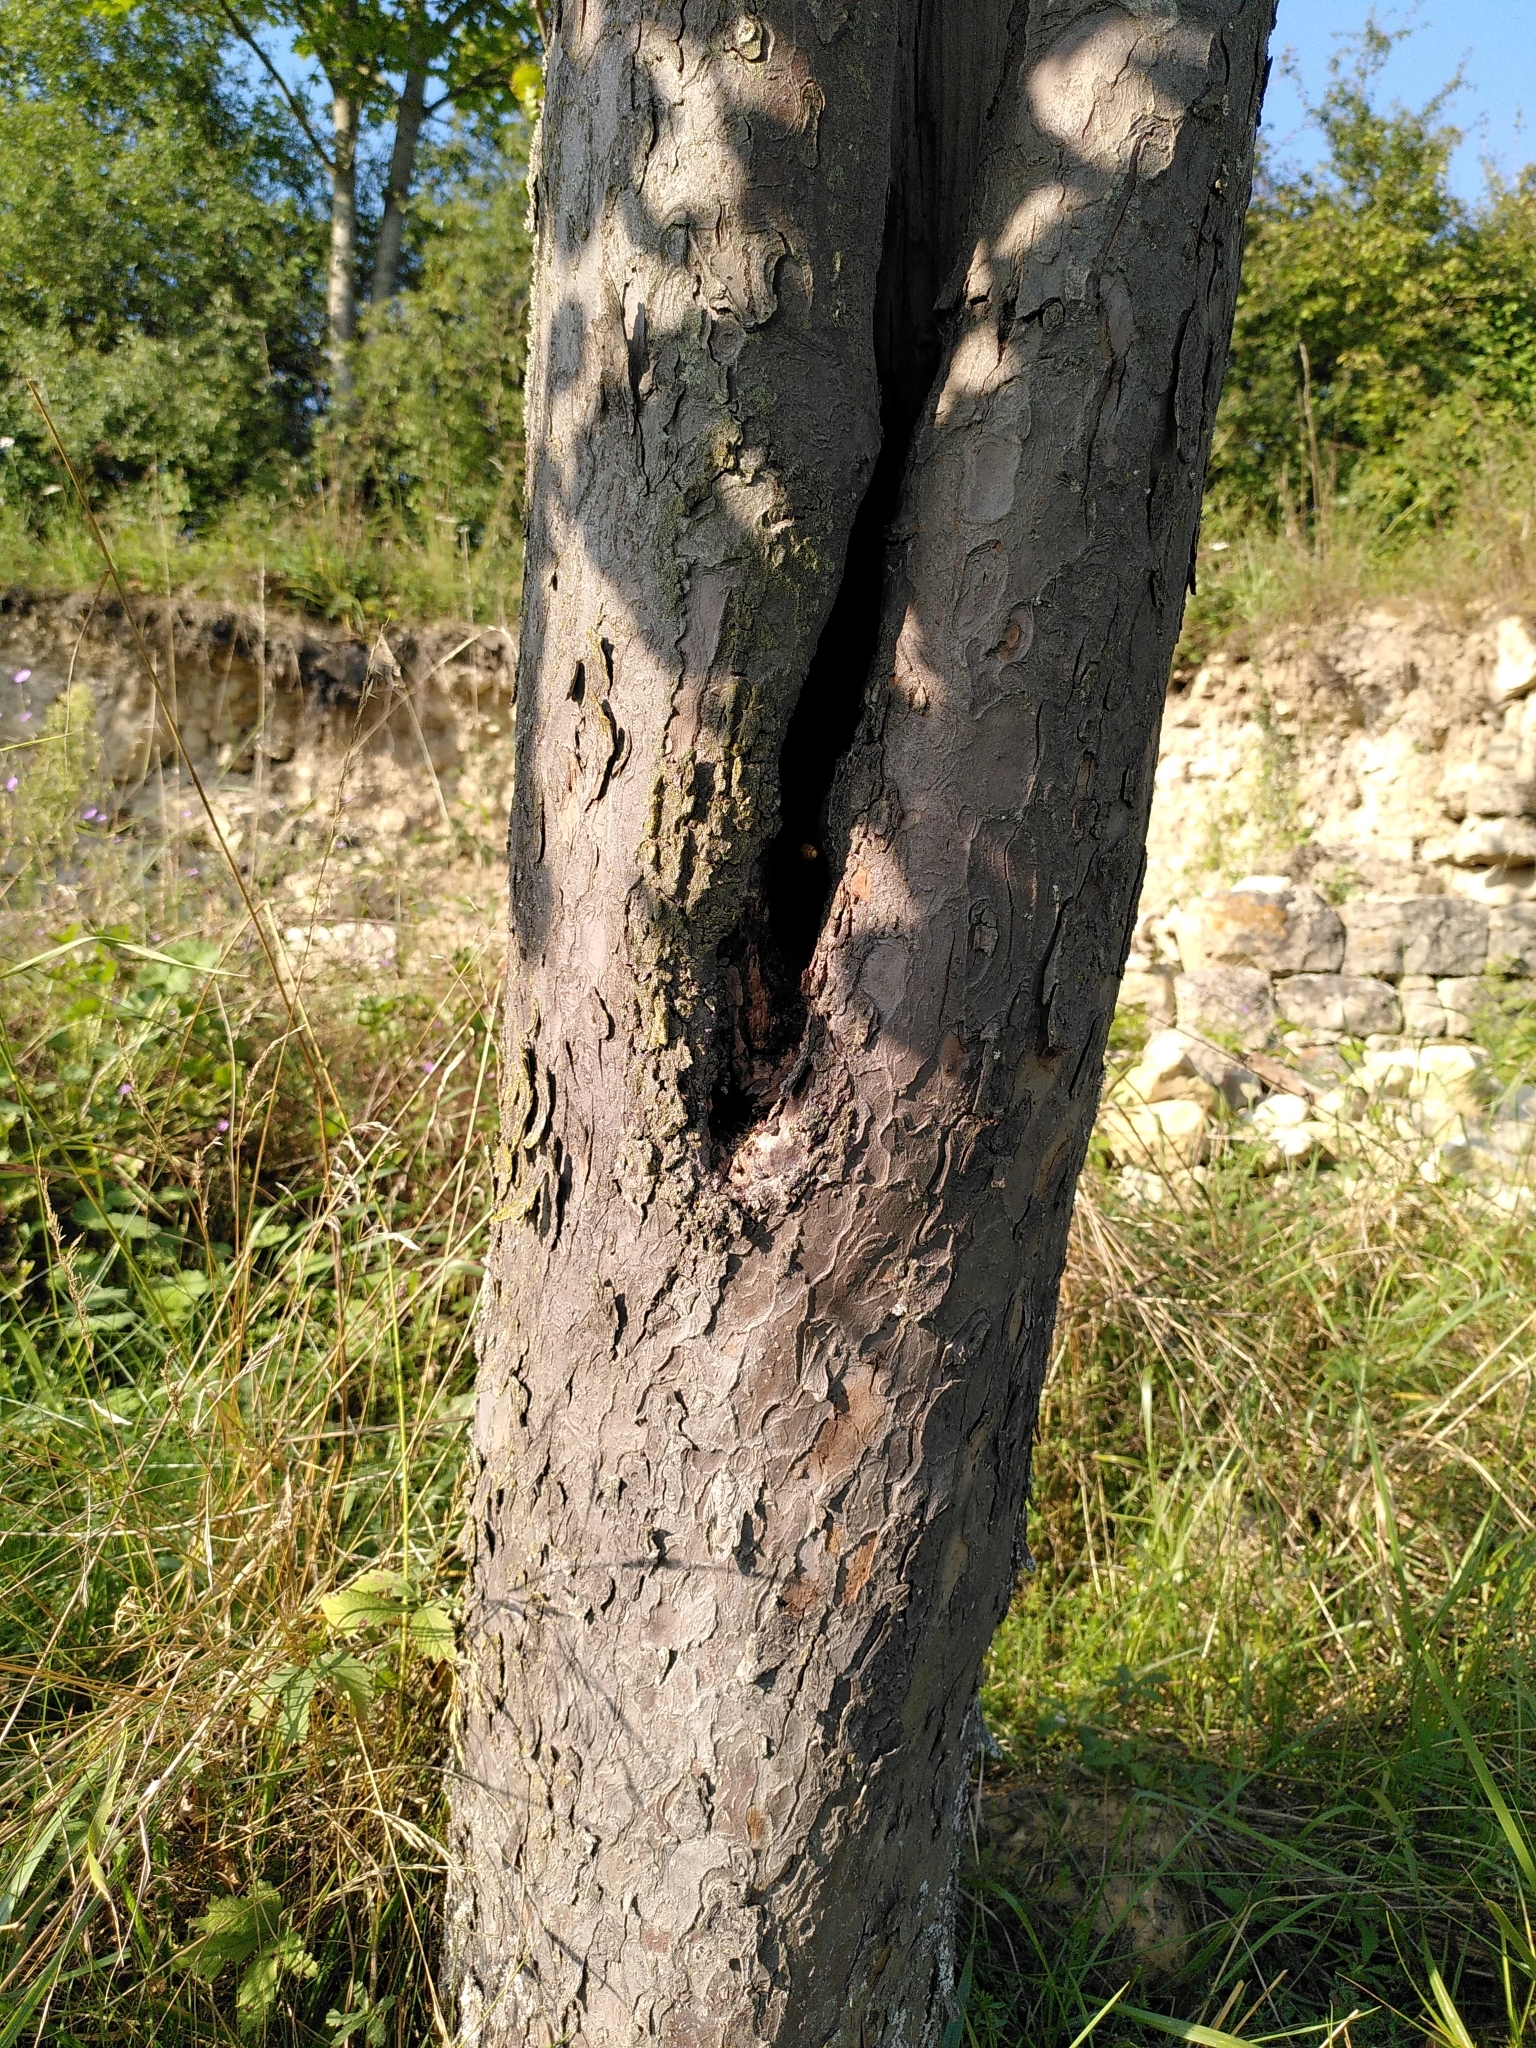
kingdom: Animalia
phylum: Arthropoda
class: Insecta
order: Hymenoptera
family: Vespidae
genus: Vespa
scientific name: Vespa crabro
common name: Hornet
